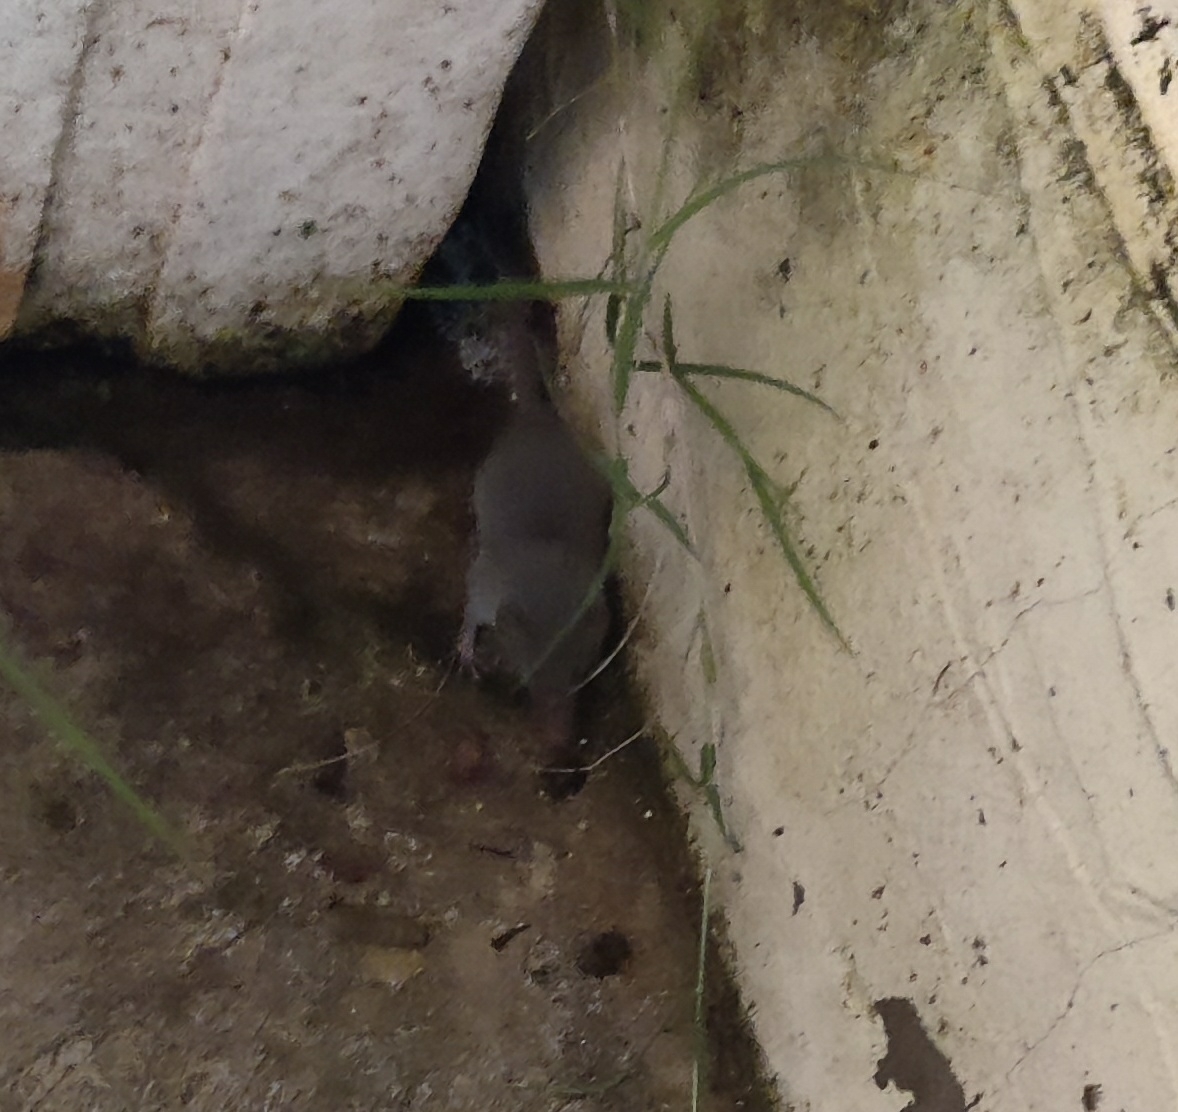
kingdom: Animalia
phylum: Chordata
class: Mammalia
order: Soricomorpha
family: Soricidae
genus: Suncus
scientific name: Suncus murinus
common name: Asian house shrew
